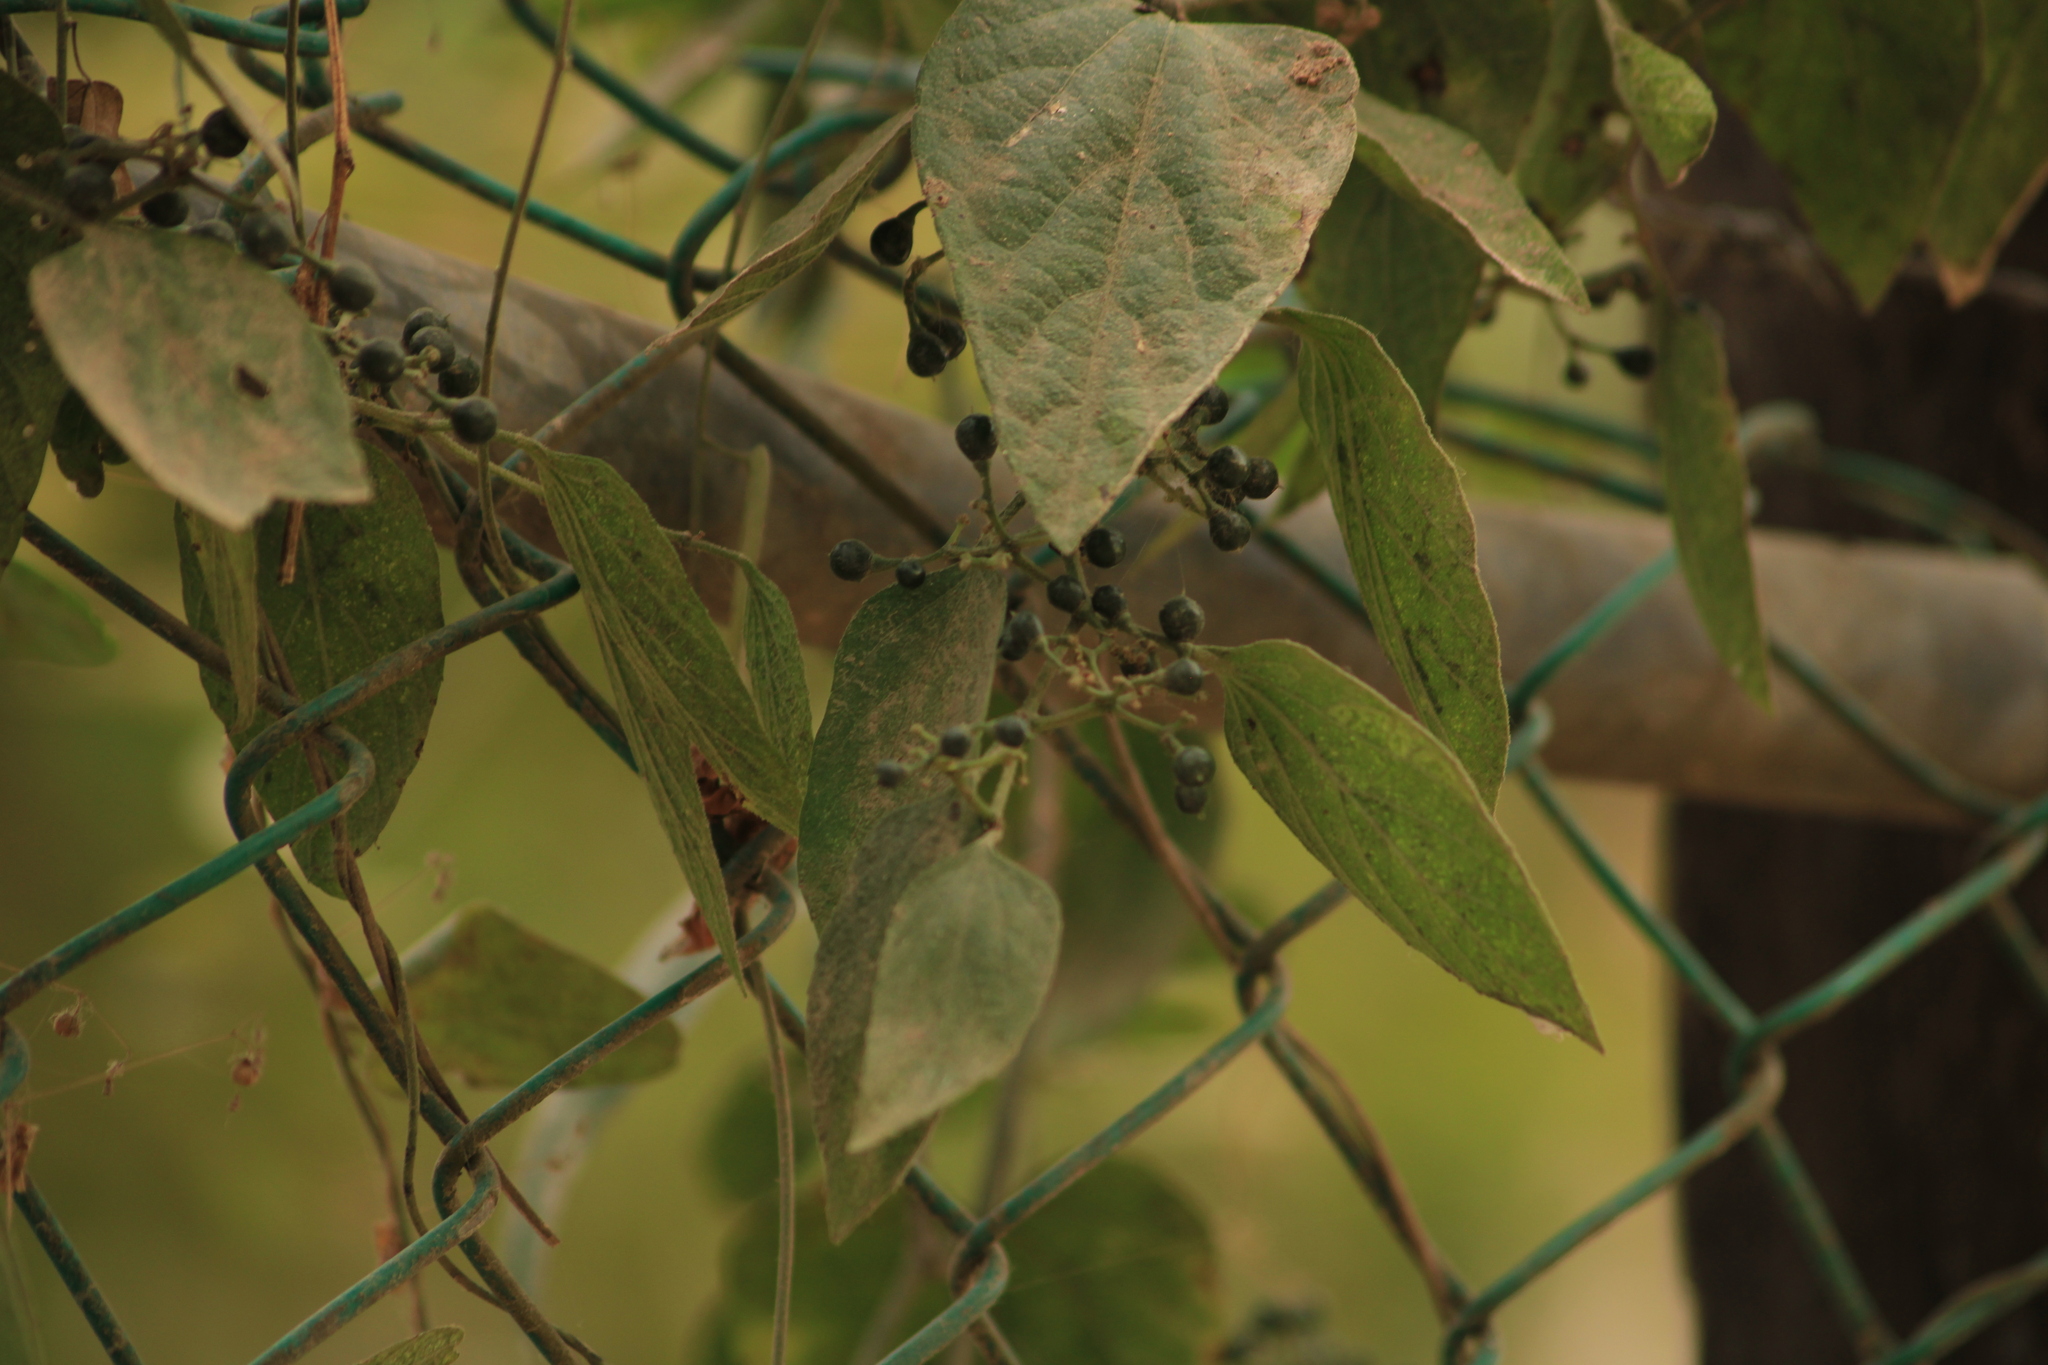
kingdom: Plantae
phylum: Tracheophyta
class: Magnoliopsida
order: Vitales
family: Vitaceae
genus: Cissus
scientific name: Cissus verticillata
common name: Princess vine
